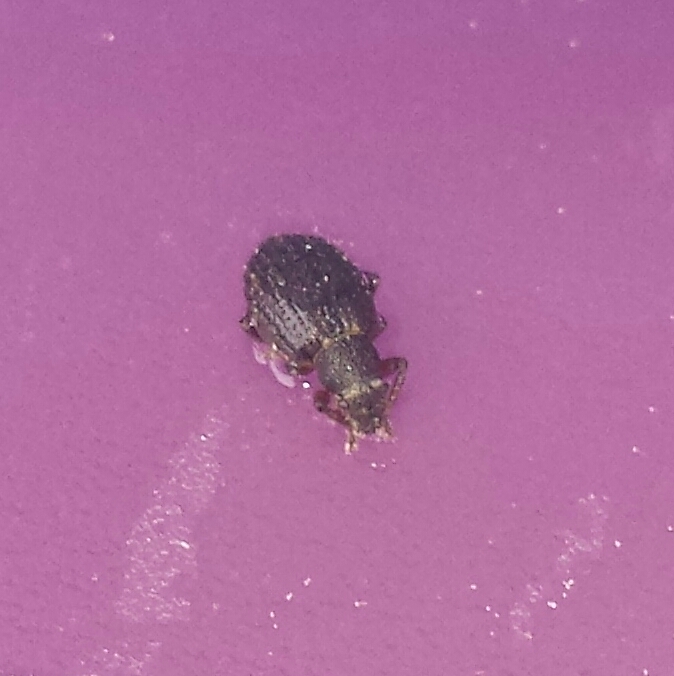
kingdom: Animalia
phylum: Arthropoda
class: Insecta
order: Coleoptera
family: Curculionidae
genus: Strophosoma
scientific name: Strophosoma melanogrammum
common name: Weevil
